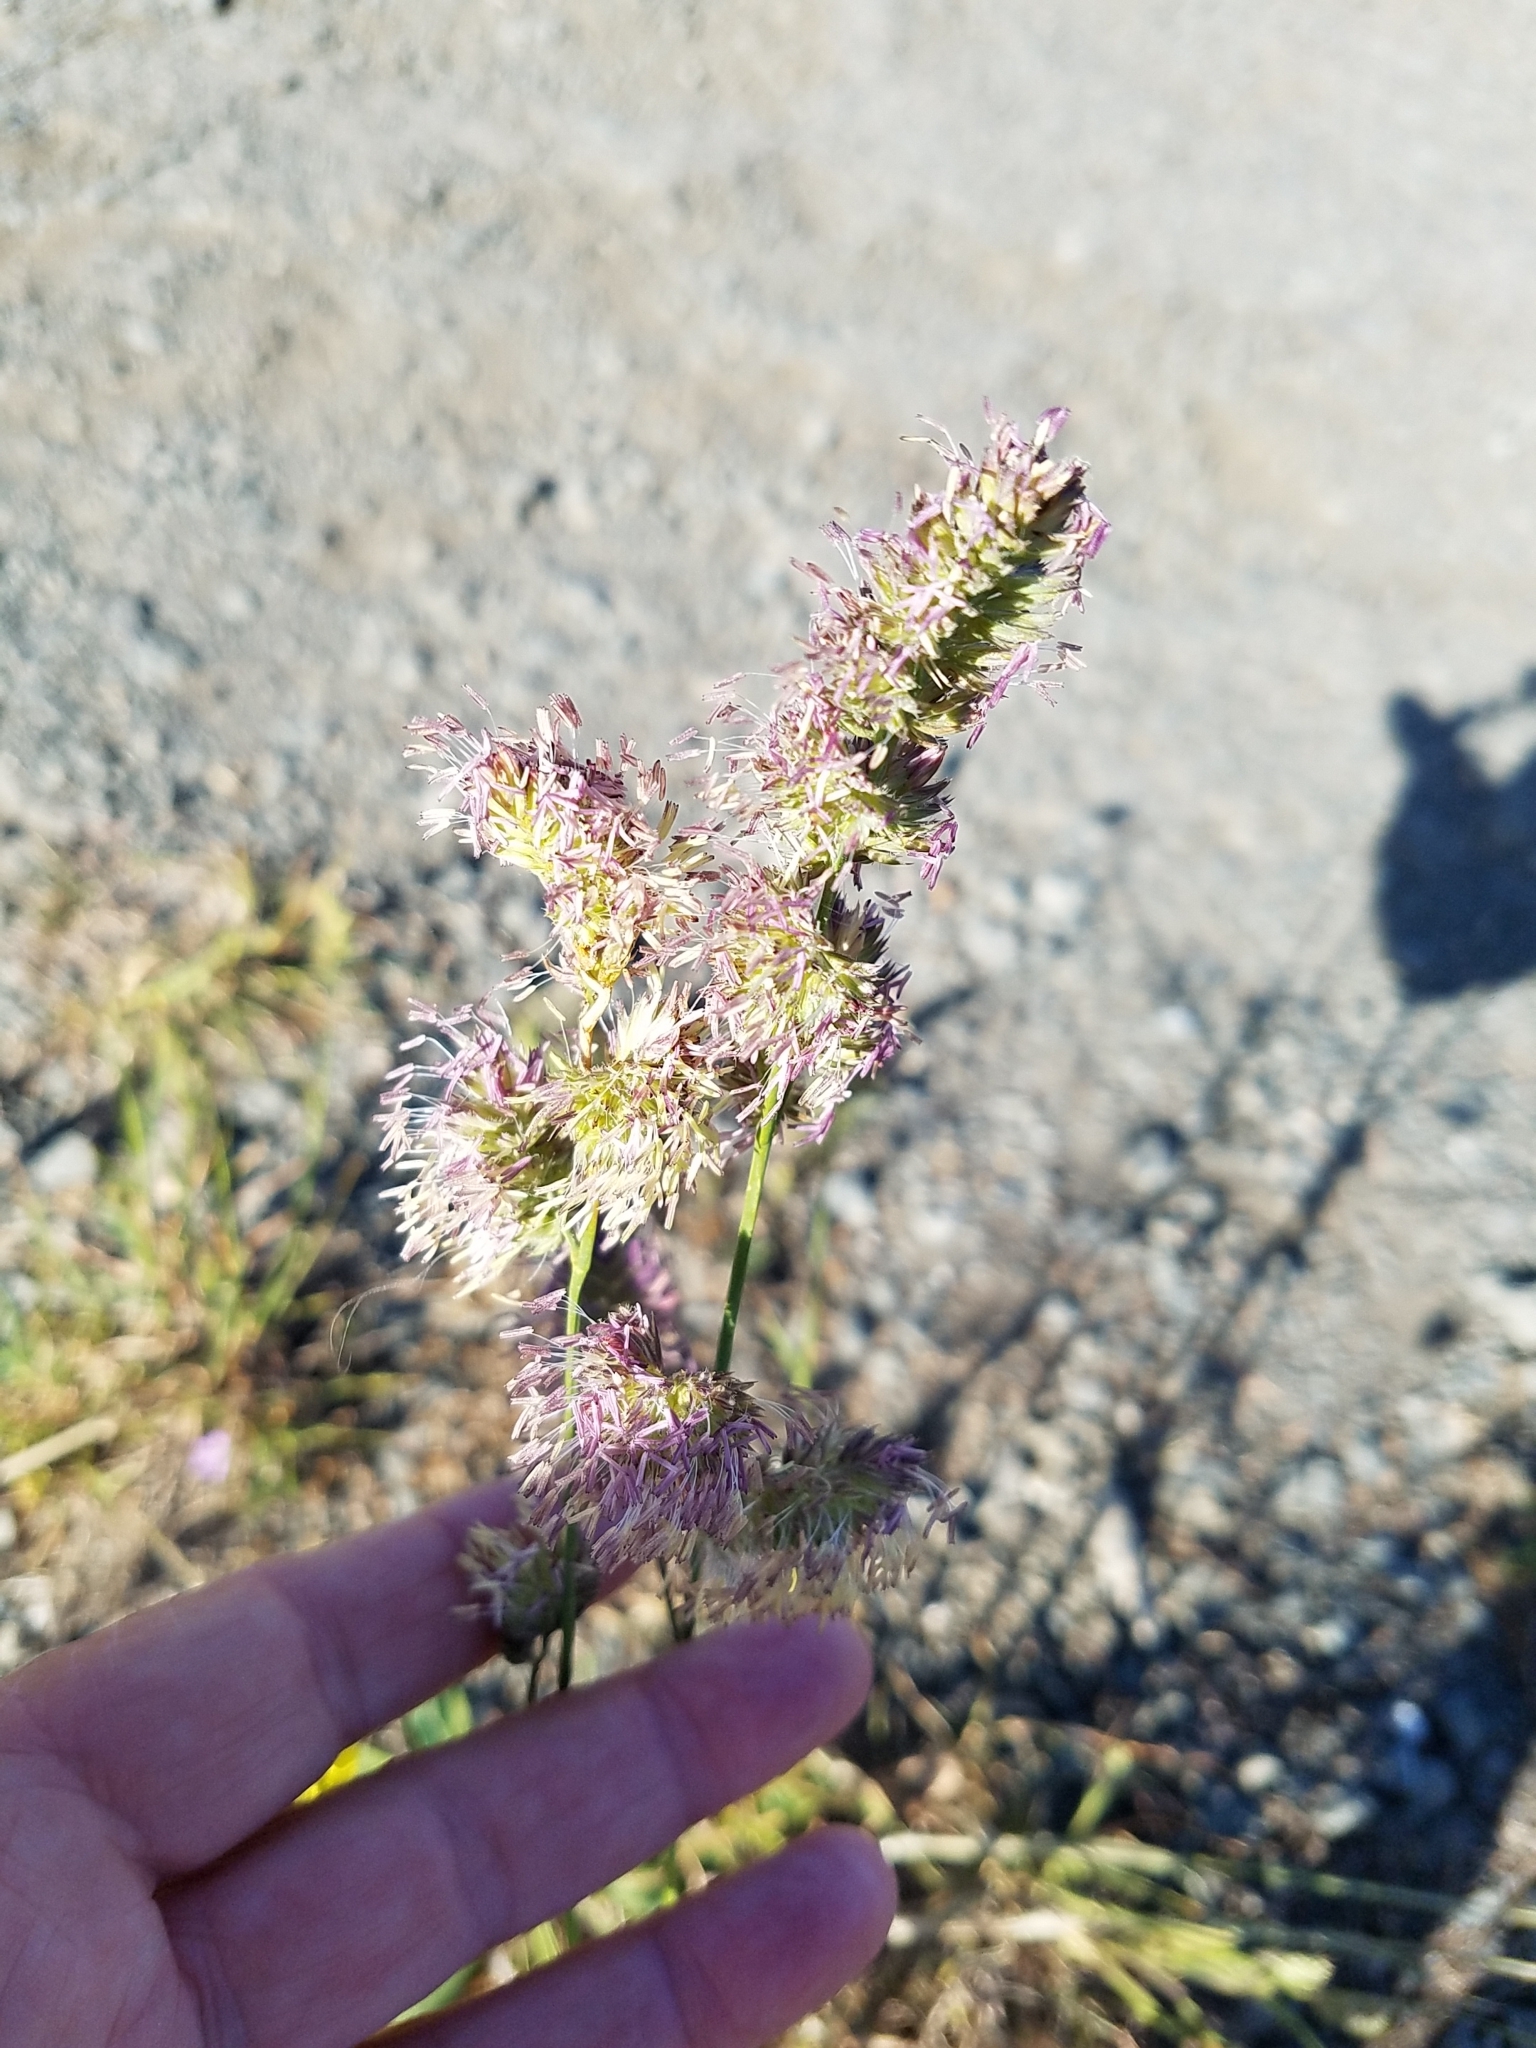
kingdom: Plantae
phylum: Tracheophyta
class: Liliopsida
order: Poales
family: Poaceae
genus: Dactylis
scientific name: Dactylis glomerata
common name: Orchardgrass
